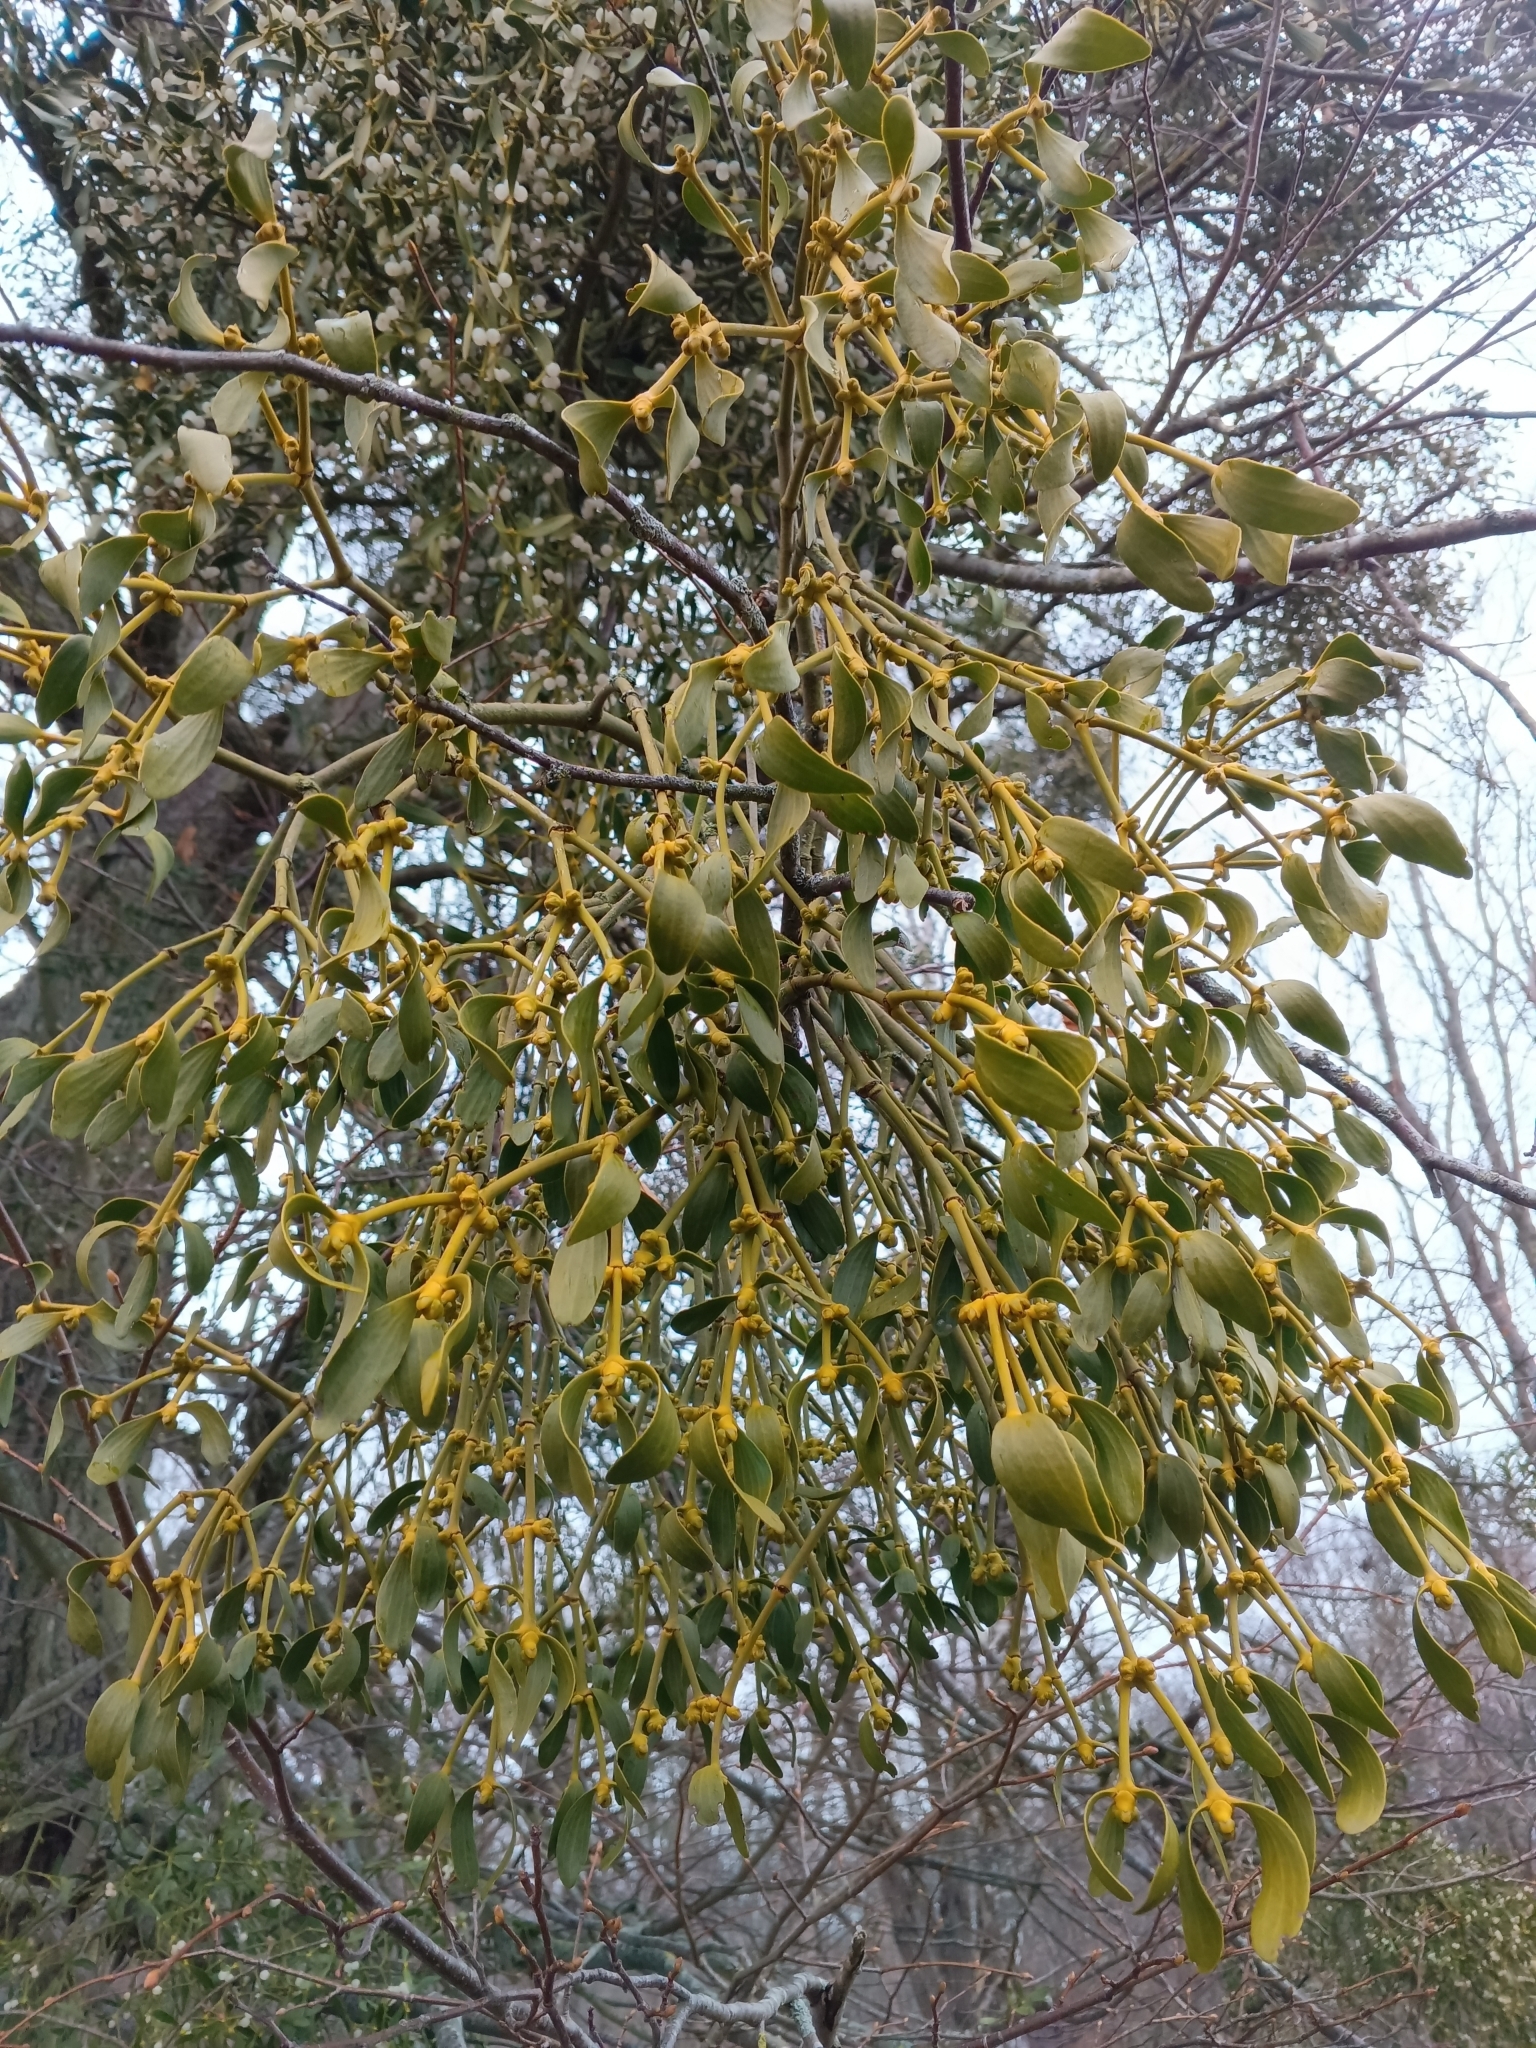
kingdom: Plantae
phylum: Tracheophyta
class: Magnoliopsida
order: Santalales
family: Viscaceae
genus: Viscum
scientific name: Viscum album
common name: Mistletoe
